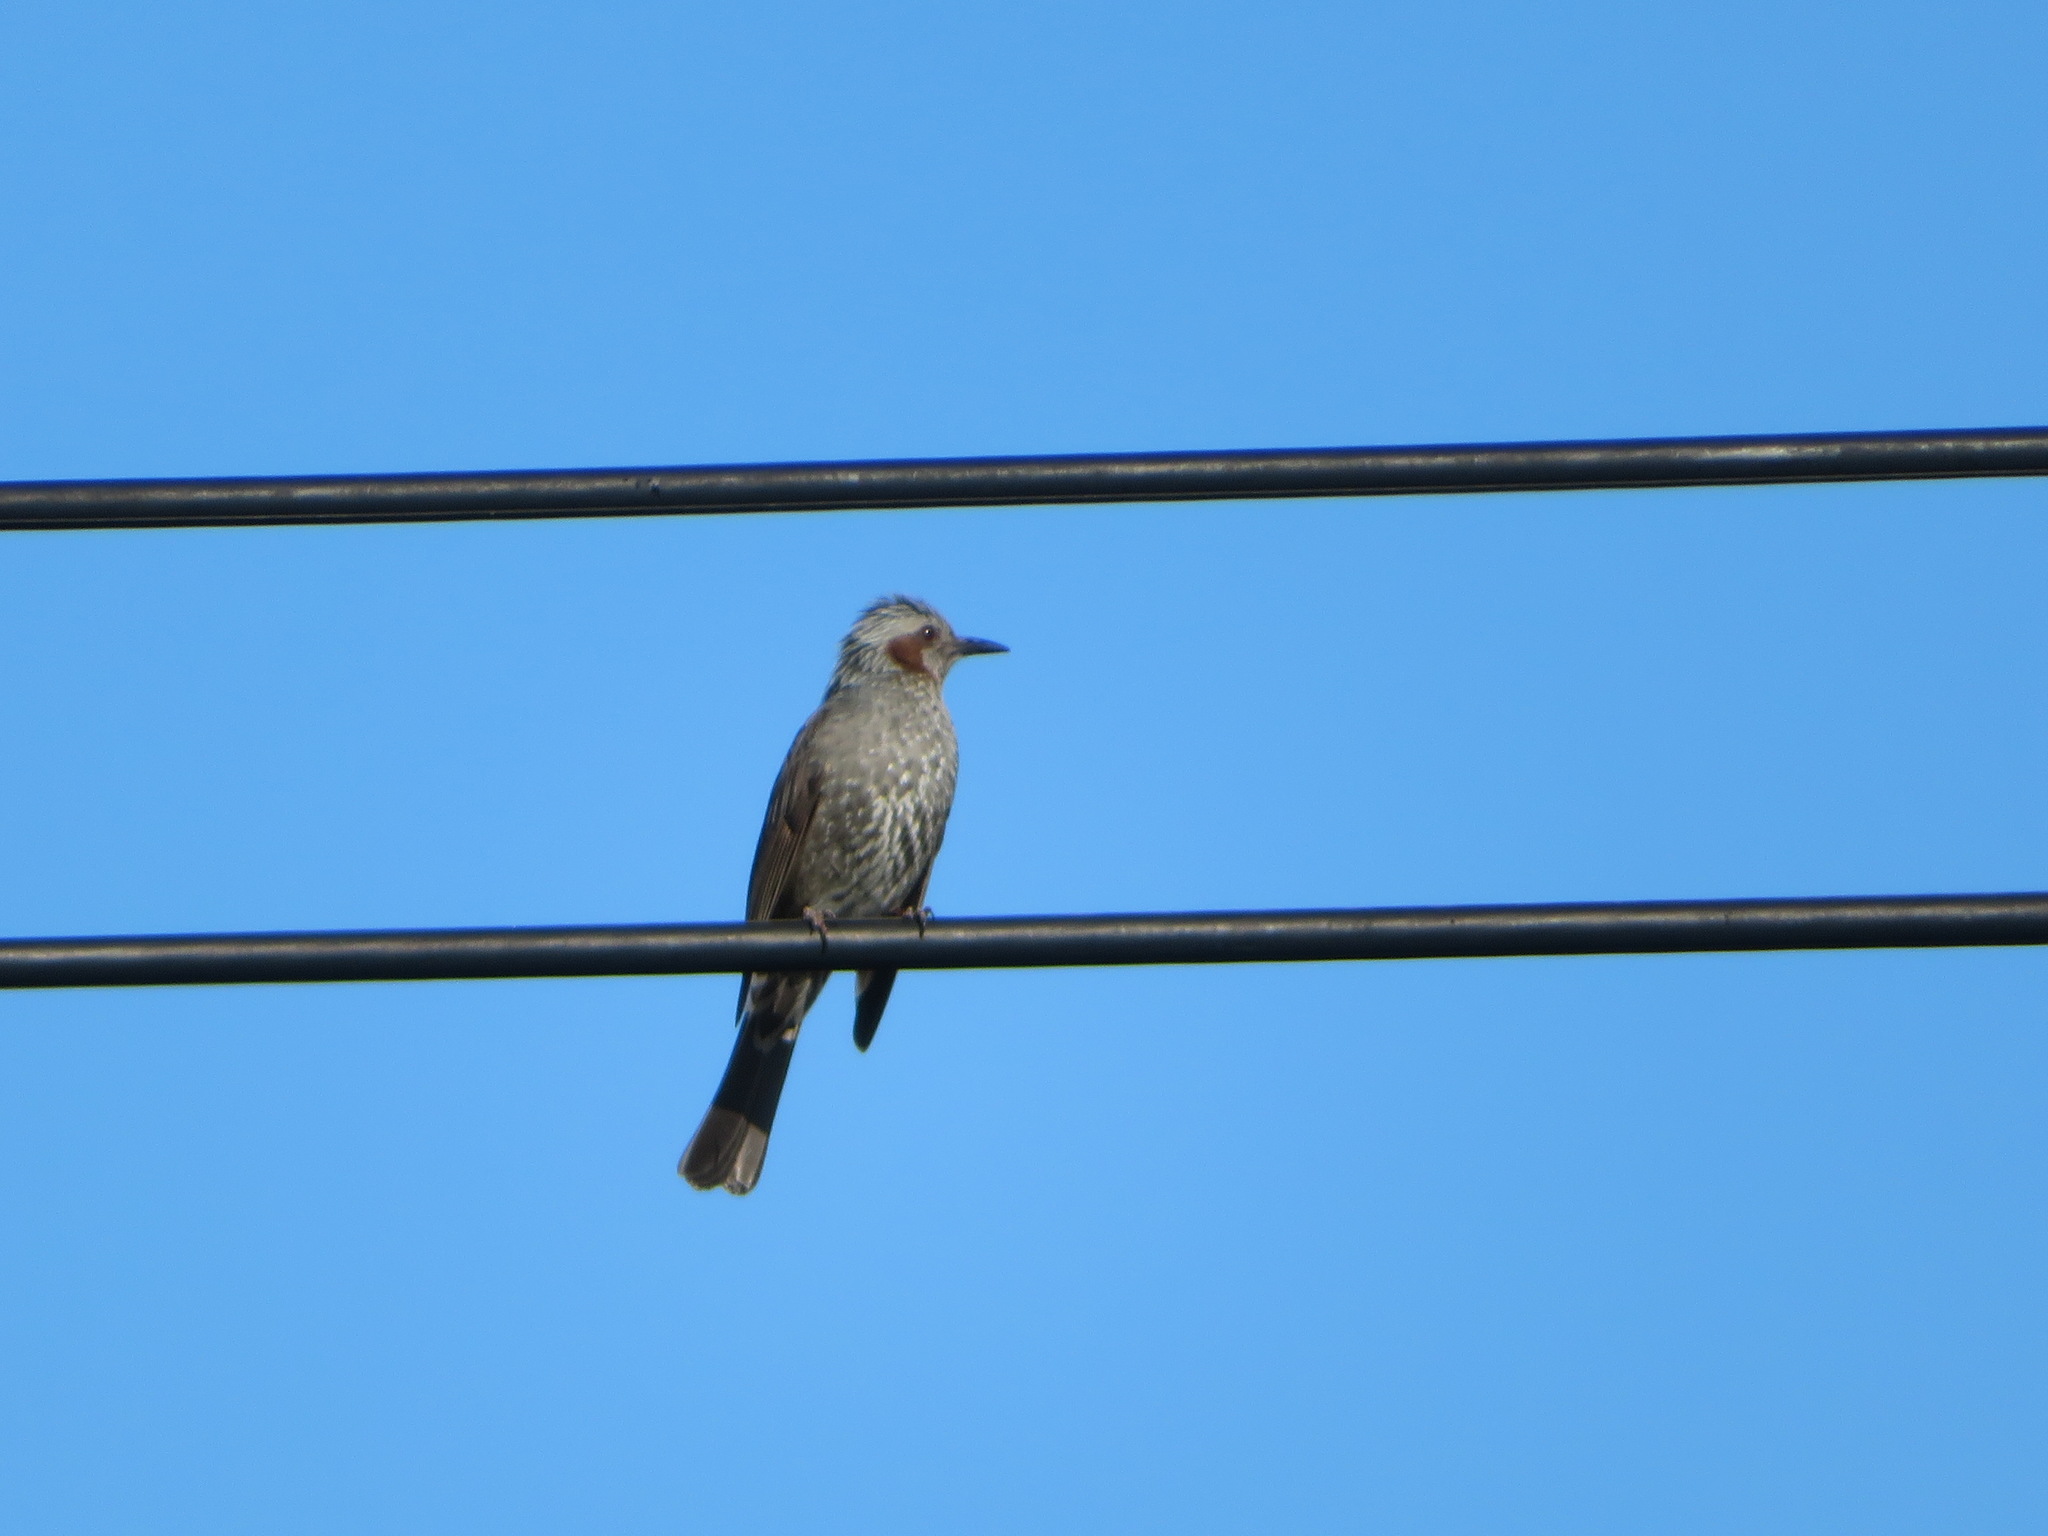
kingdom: Animalia
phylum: Chordata
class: Aves
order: Passeriformes
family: Pycnonotidae
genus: Hypsipetes
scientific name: Hypsipetes amaurotis
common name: Brown-eared bulbul
